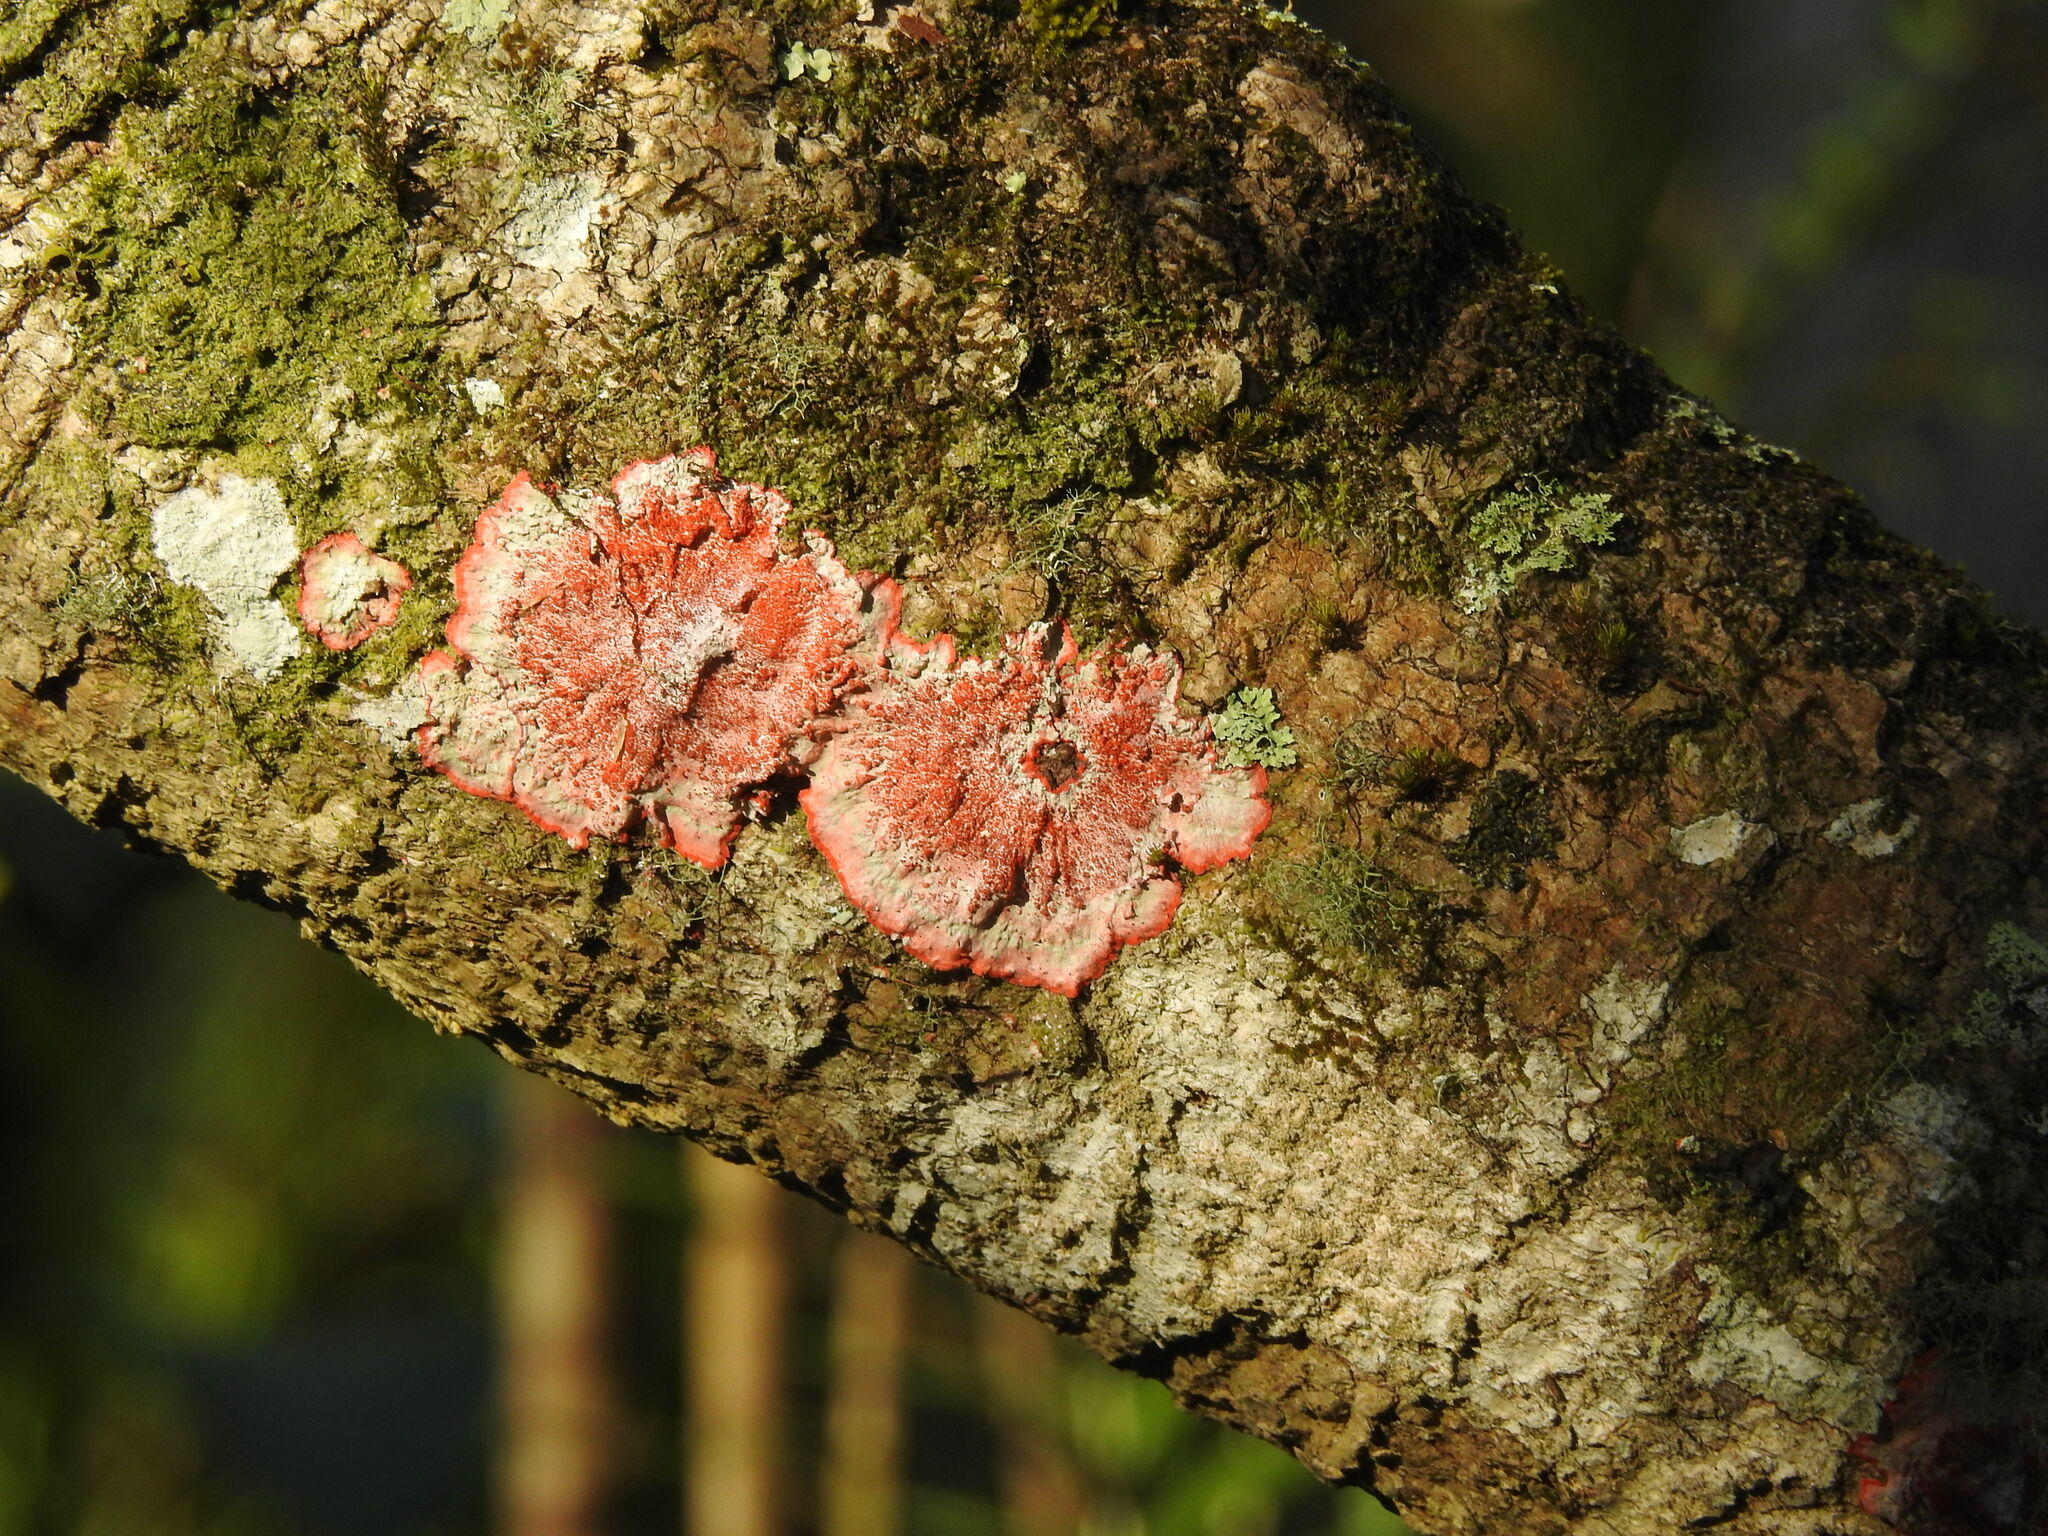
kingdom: Fungi
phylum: Ascomycota
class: Arthoniomycetes
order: Arthoniales
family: Arthoniaceae
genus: Herpothallon
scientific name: Herpothallon rubrocinctum
